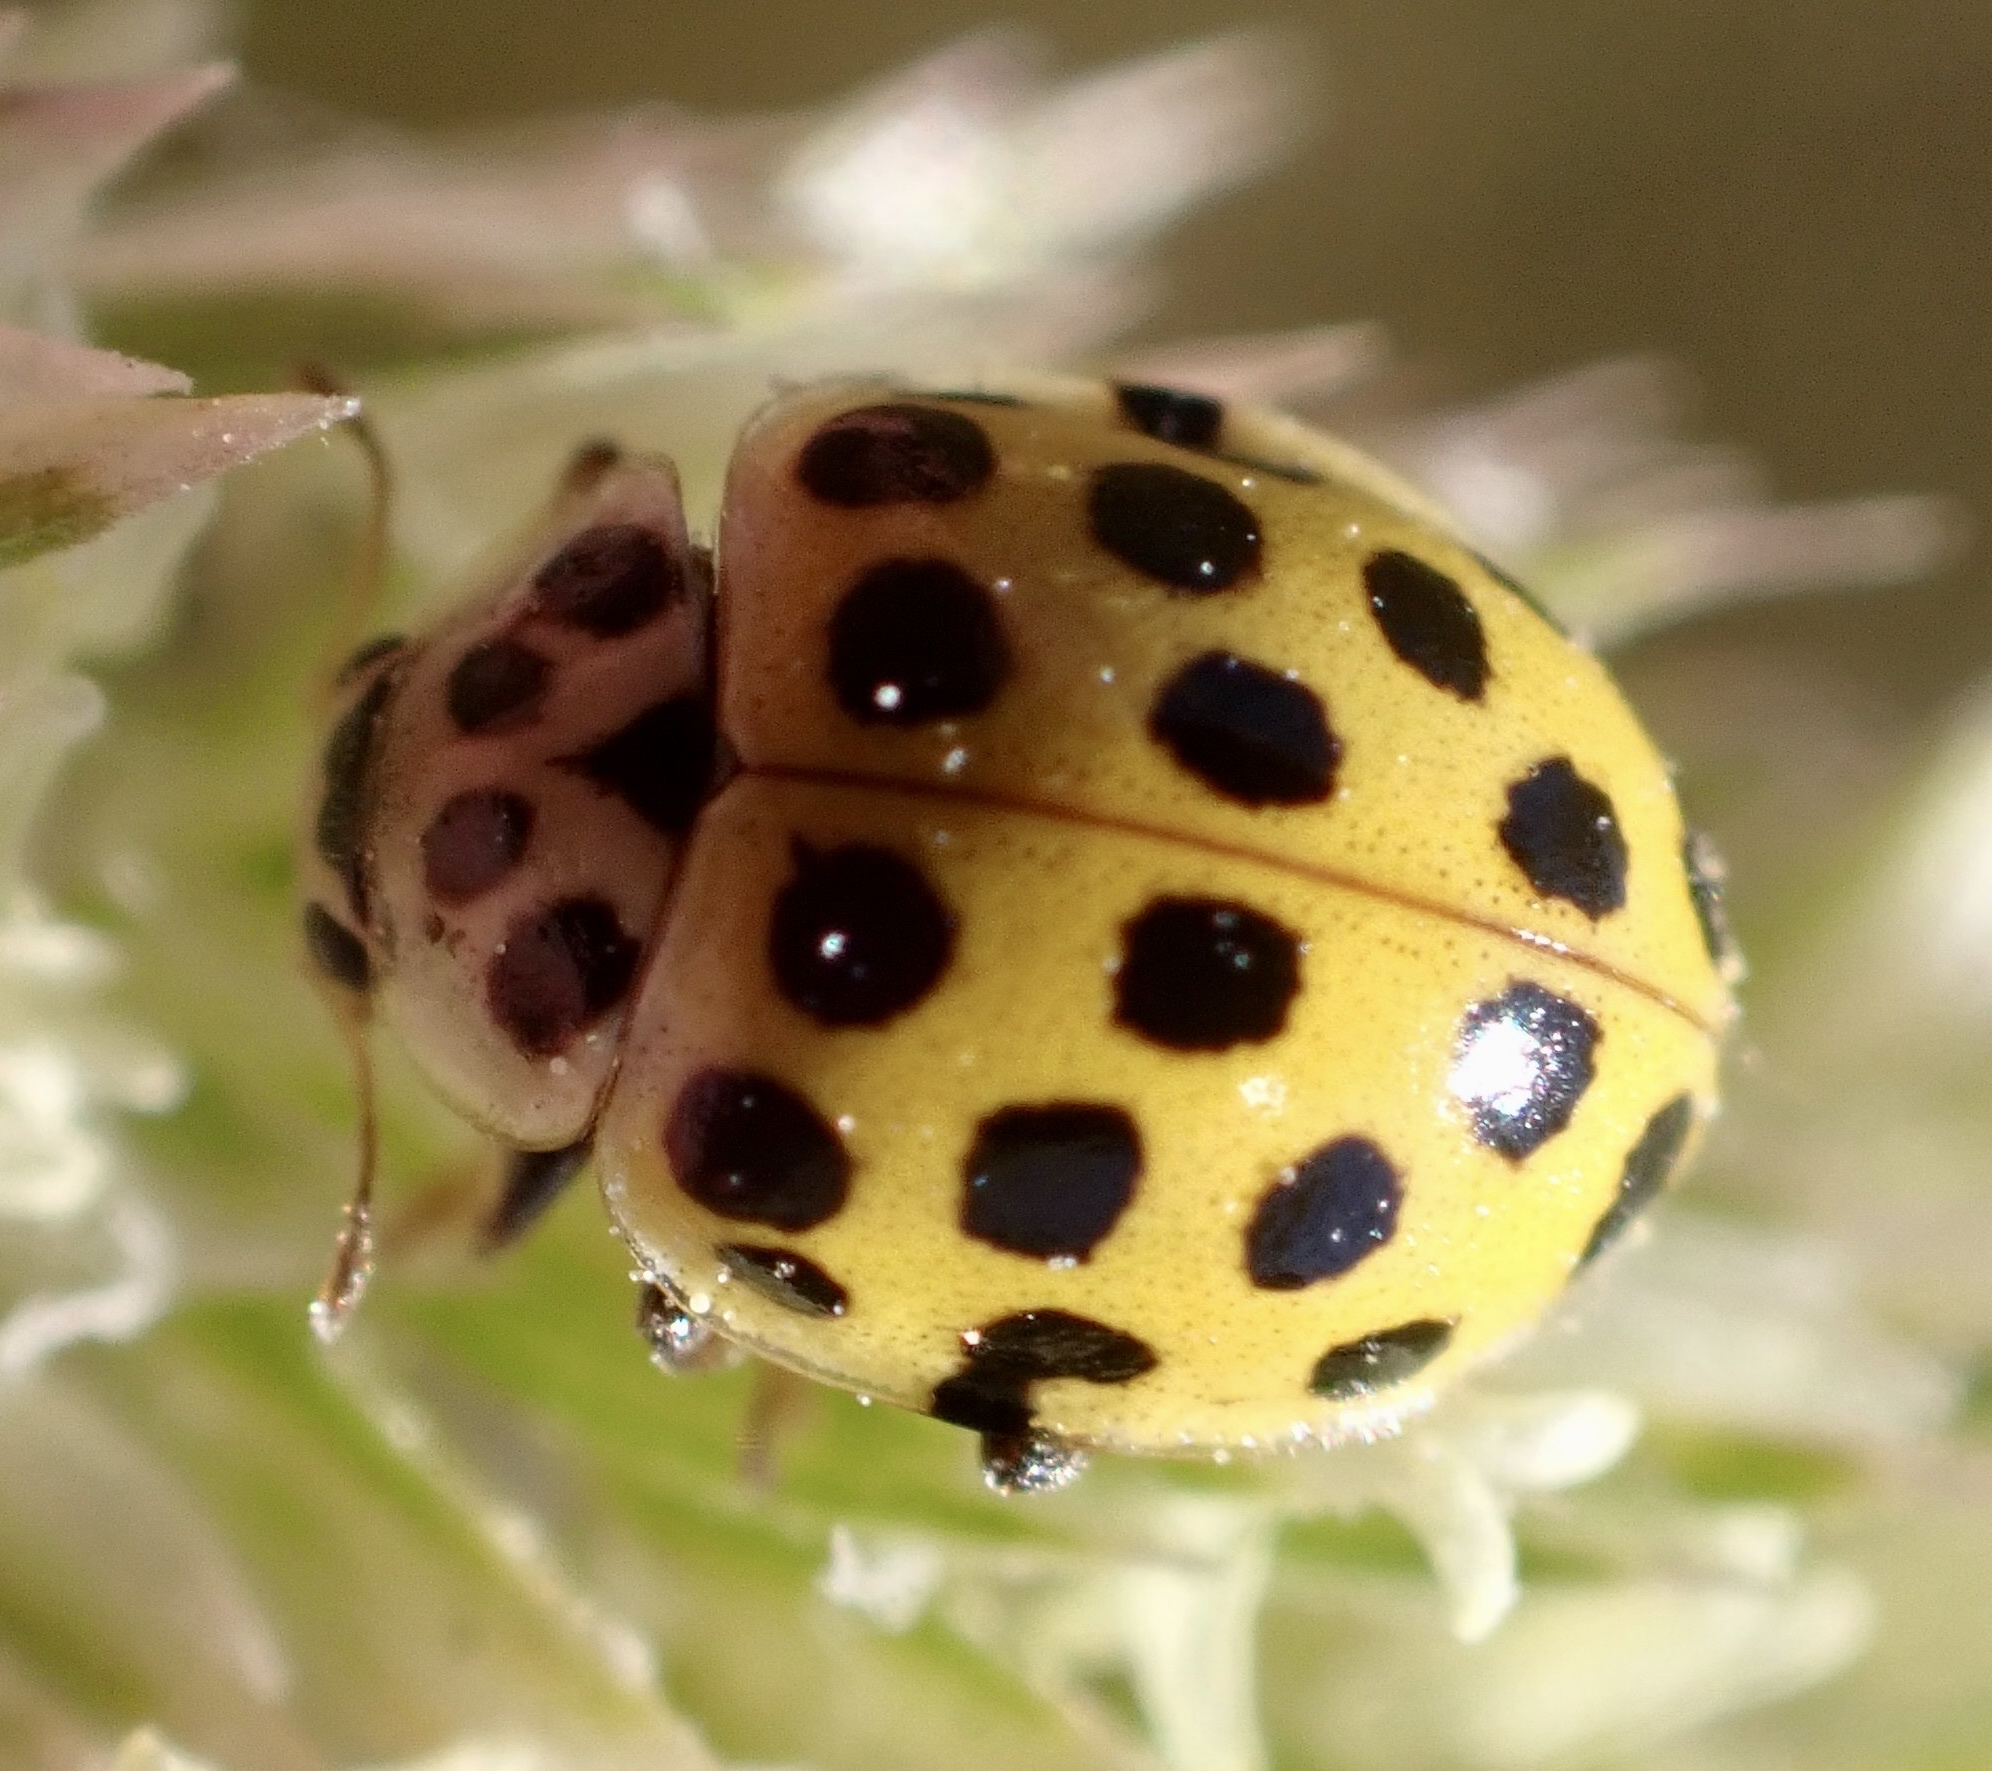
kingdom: Animalia
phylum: Arthropoda
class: Insecta
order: Coleoptera
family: Coccinellidae
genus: Psyllobora
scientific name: Psyllobora vigintiduopunctata
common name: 22-spot ladybird
